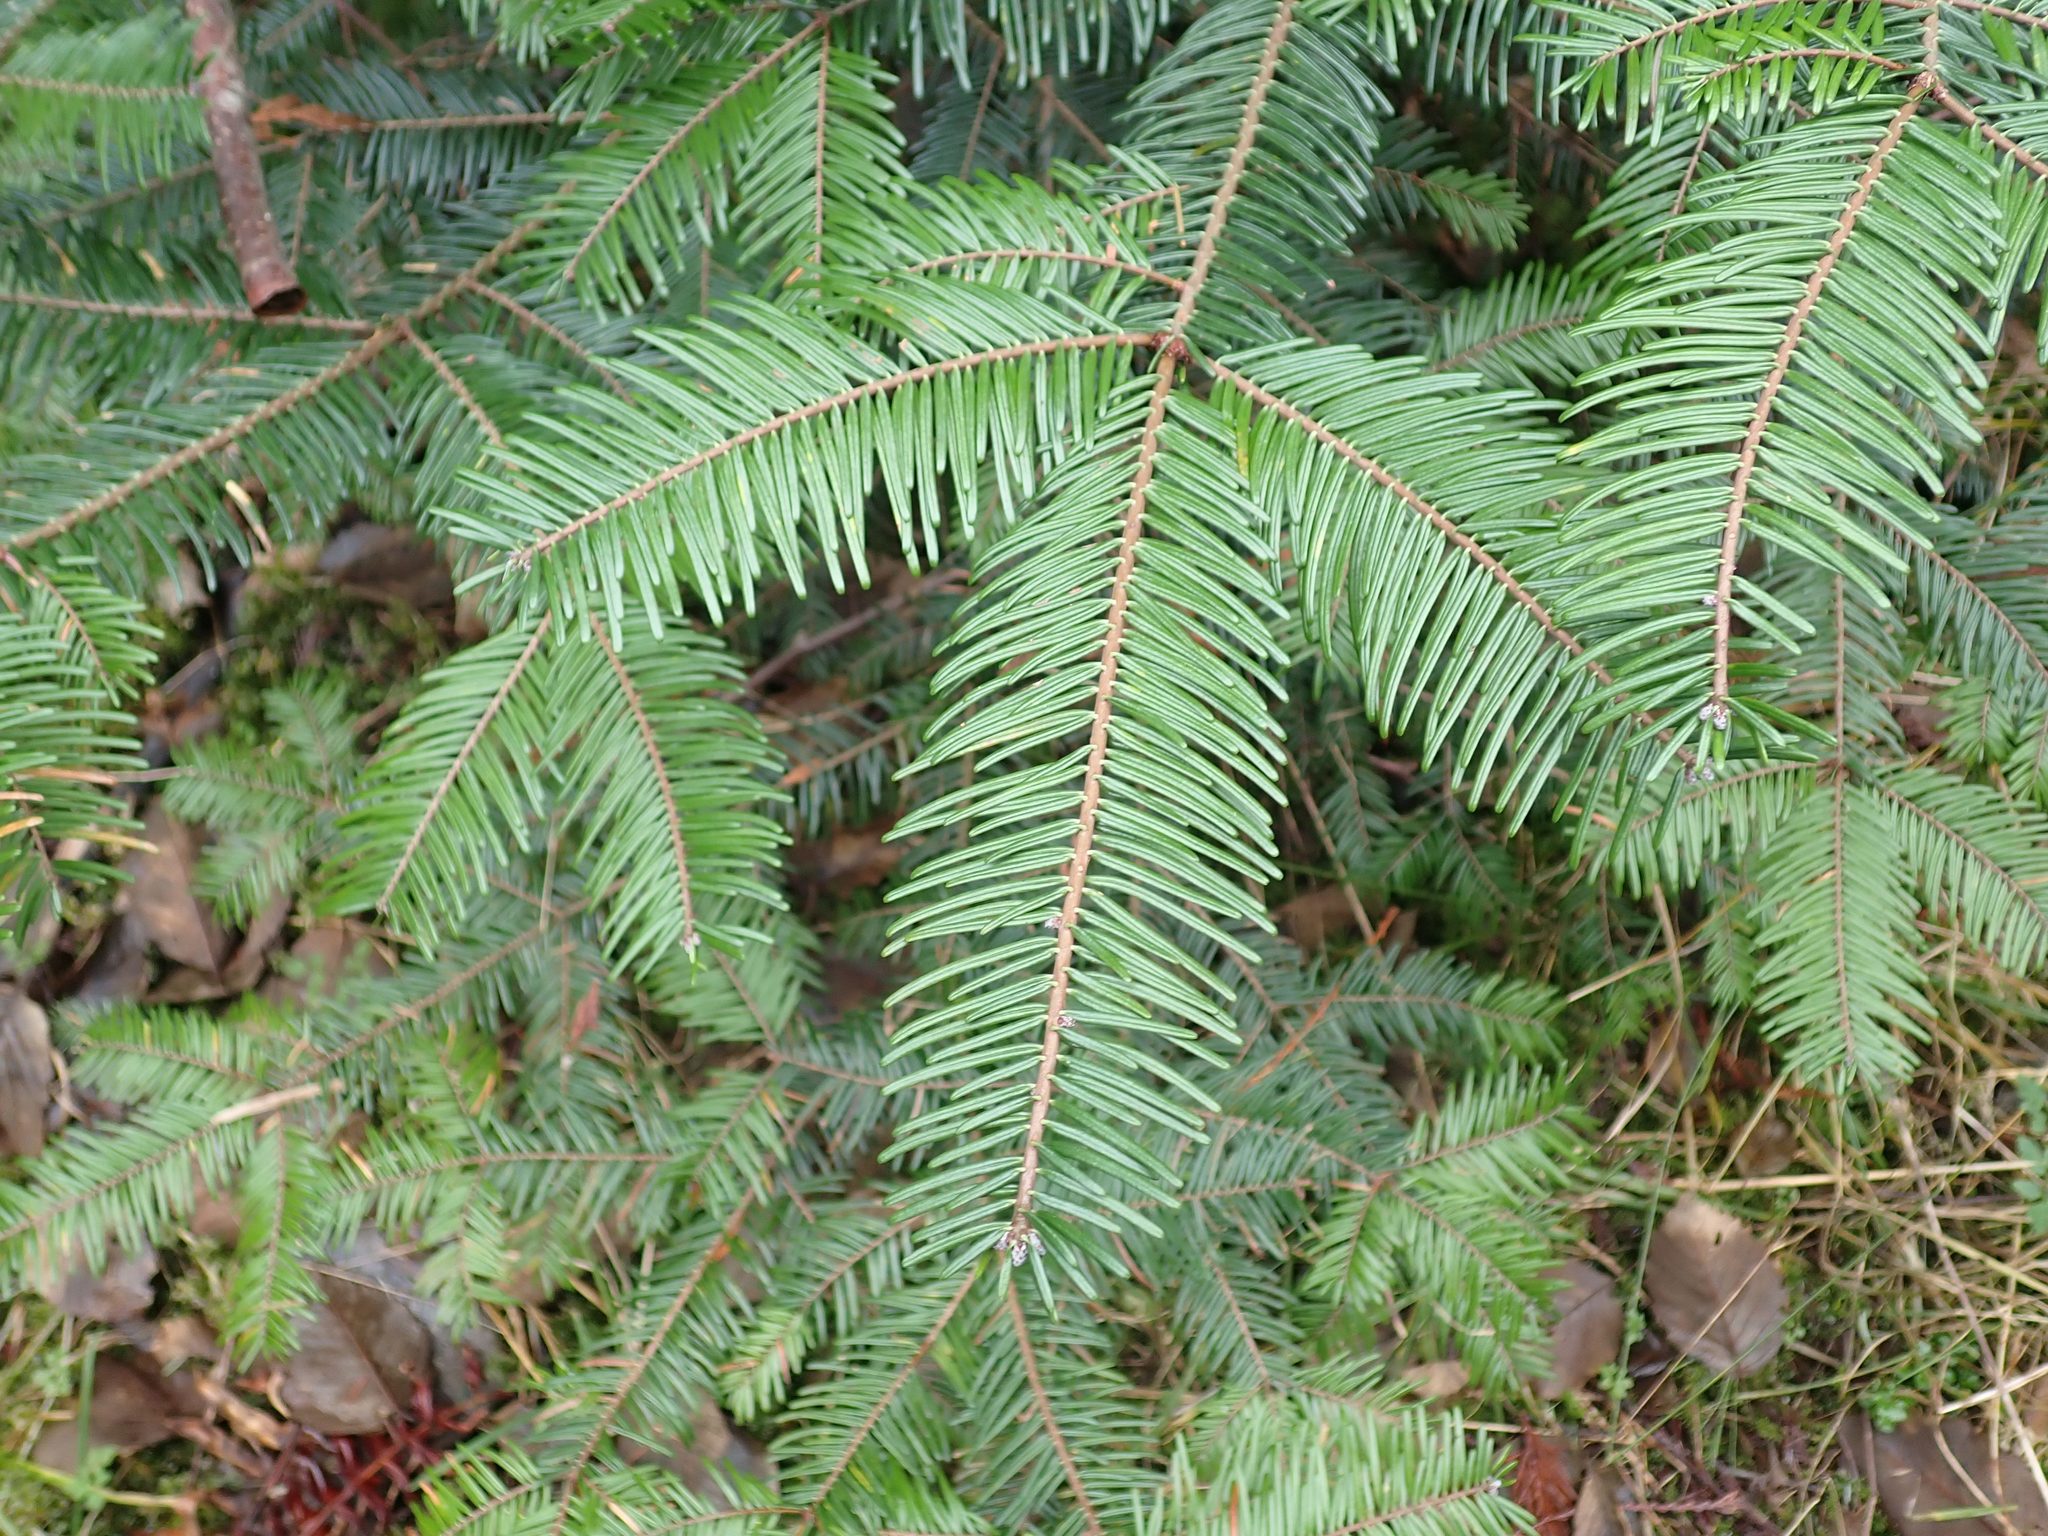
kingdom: Plantae
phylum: Tracheophyta
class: Pinopsida
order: Pinales
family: Pinaceae
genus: Abies
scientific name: Abies grandis
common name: Giant fir
